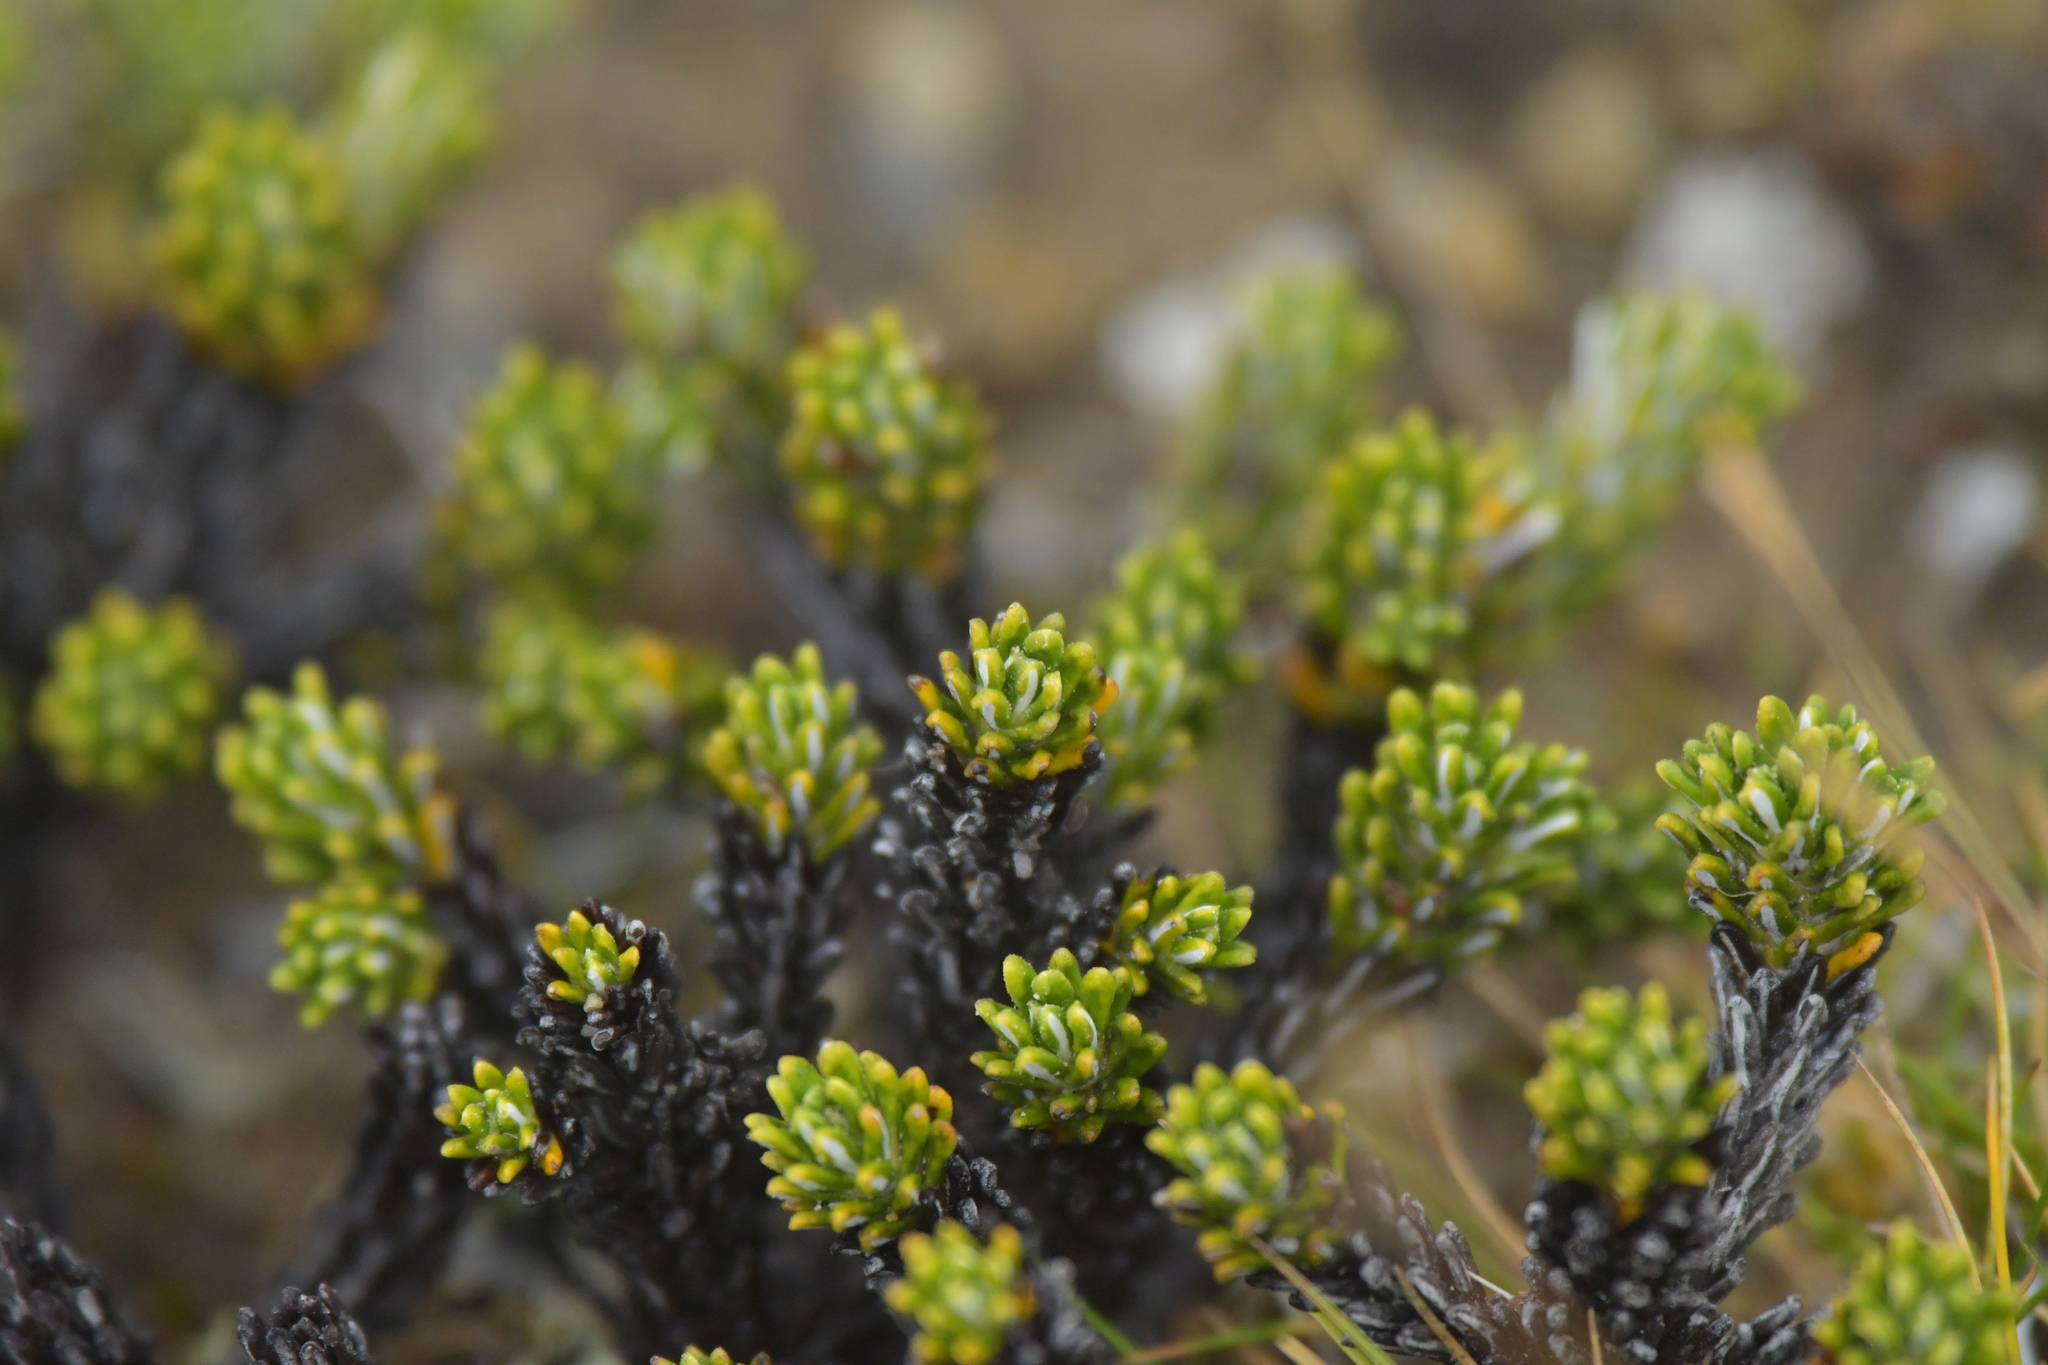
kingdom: Plantae
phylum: Tracheophyta
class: Magnoliopsida
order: Asterales
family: Asteraceae
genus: Celmisia
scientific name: Celmisia ramulosa
